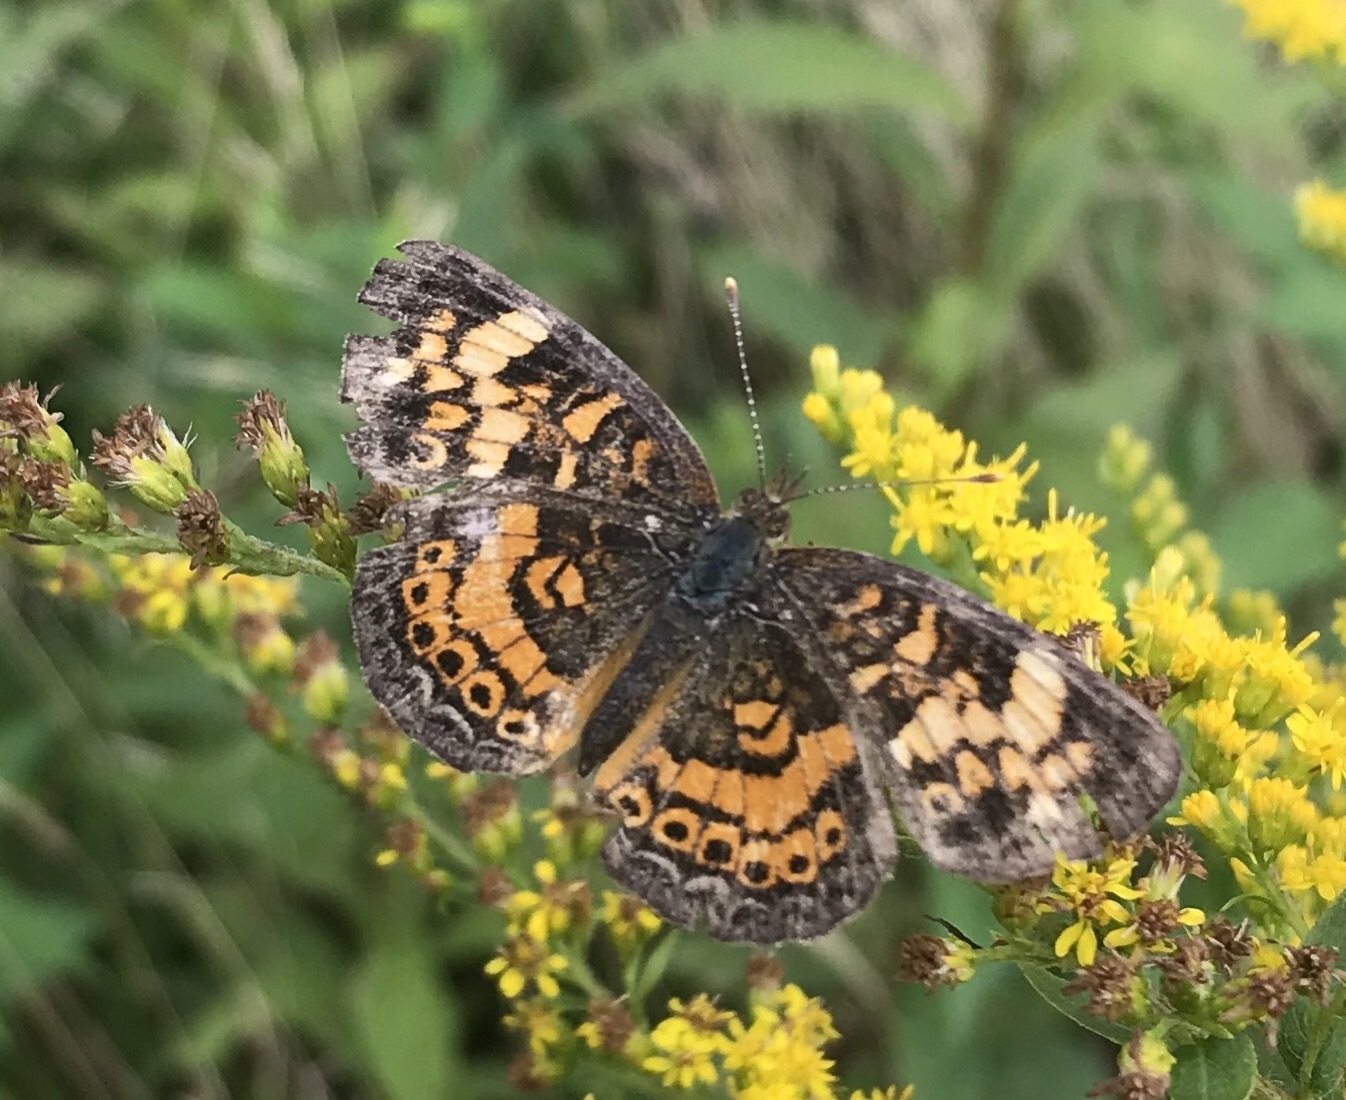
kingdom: Animalia
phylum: Arthropoda
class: Insecta
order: Lepidoptera
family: Nymphalidae
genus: Phyciodes
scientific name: Phyciodes tharos
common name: Pearl crescent
